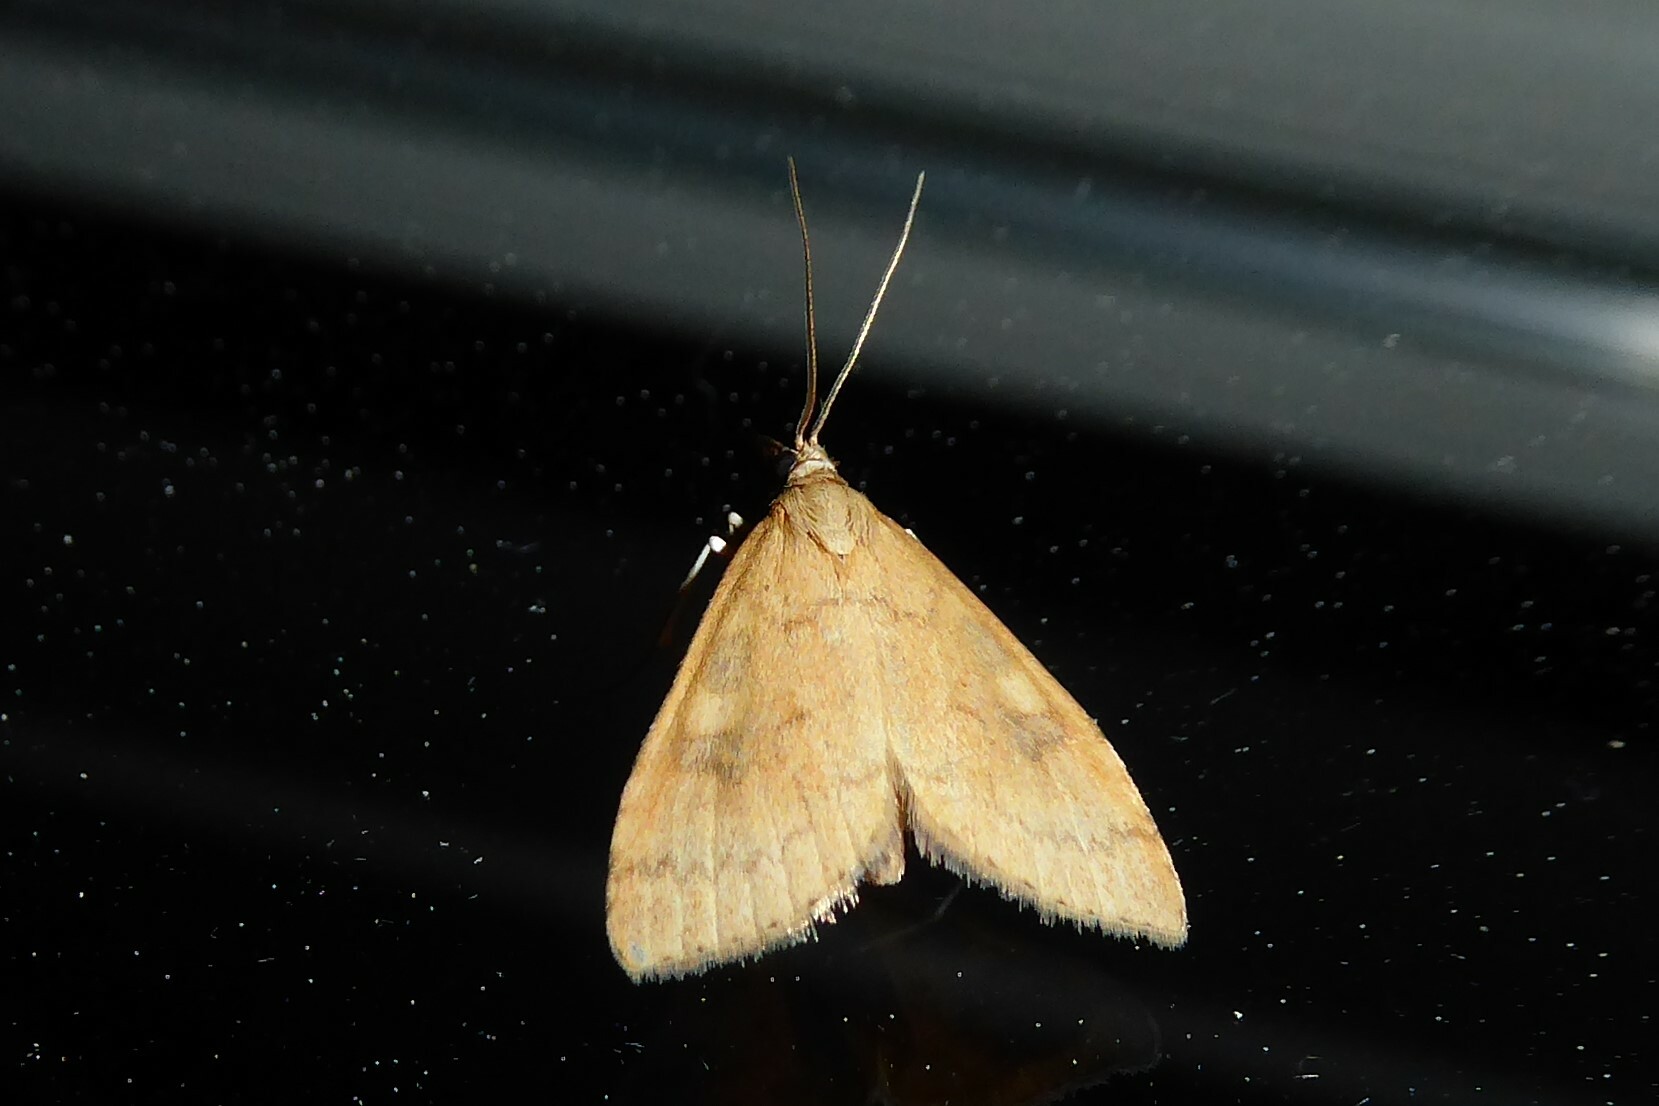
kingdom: Animalia
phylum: Arthropoda
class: Insecta
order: Lepidoptera
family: Crambidae
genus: Udea
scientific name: Udea Mnesictena flavidalis
